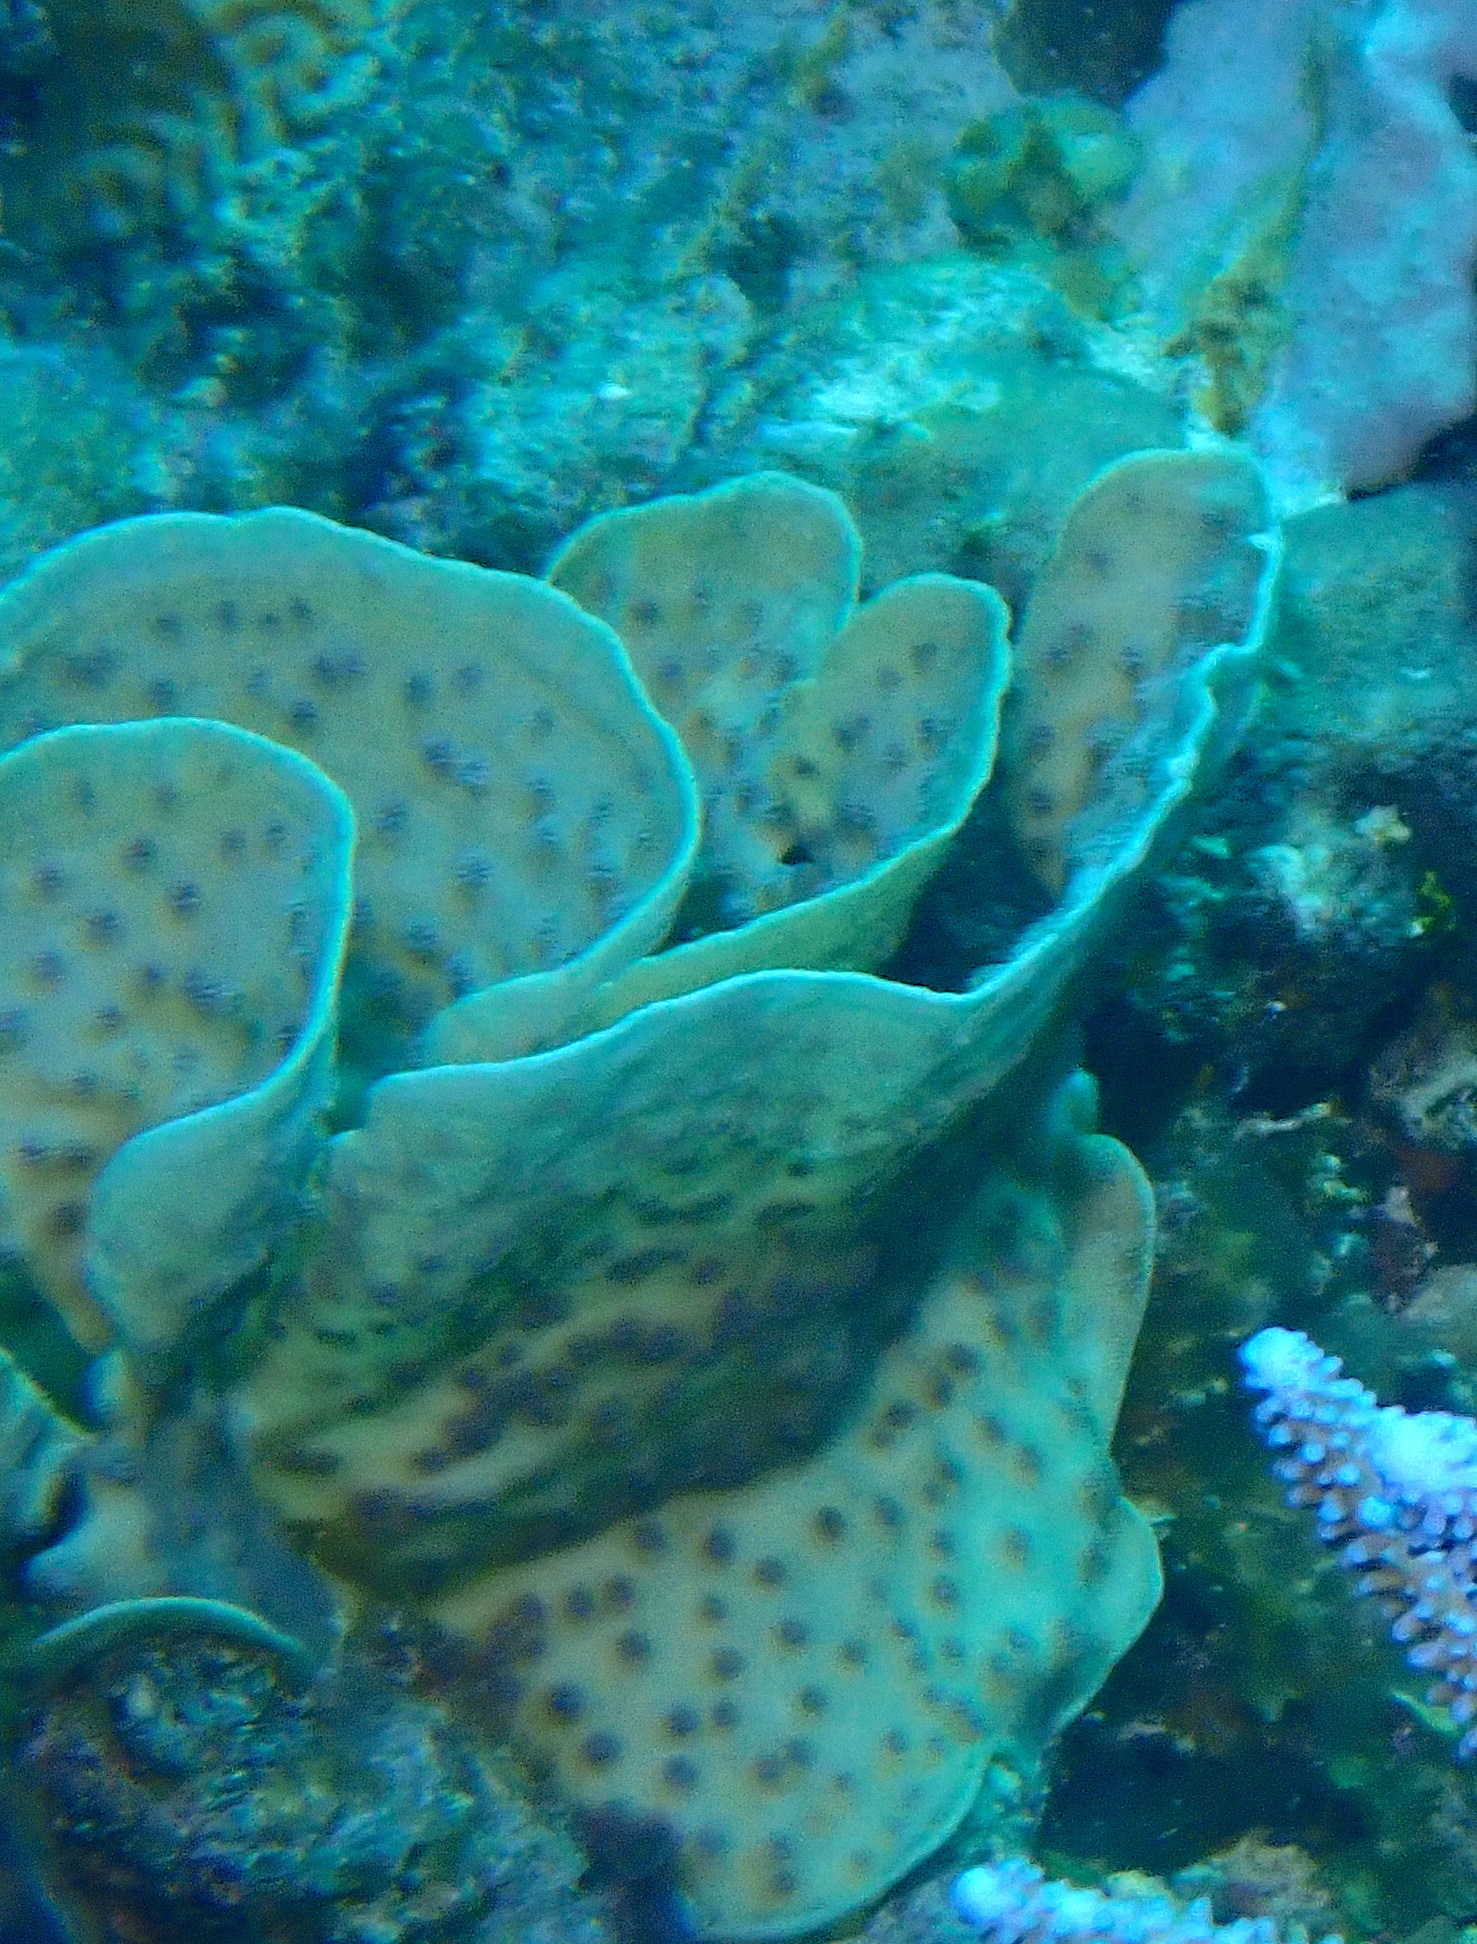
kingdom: Animalia
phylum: Cnidaria
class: Anthozoa
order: Scleractinia
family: Merulinidae
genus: Echinopora
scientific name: Echinopora lamellosa
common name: Hedgehog coral
